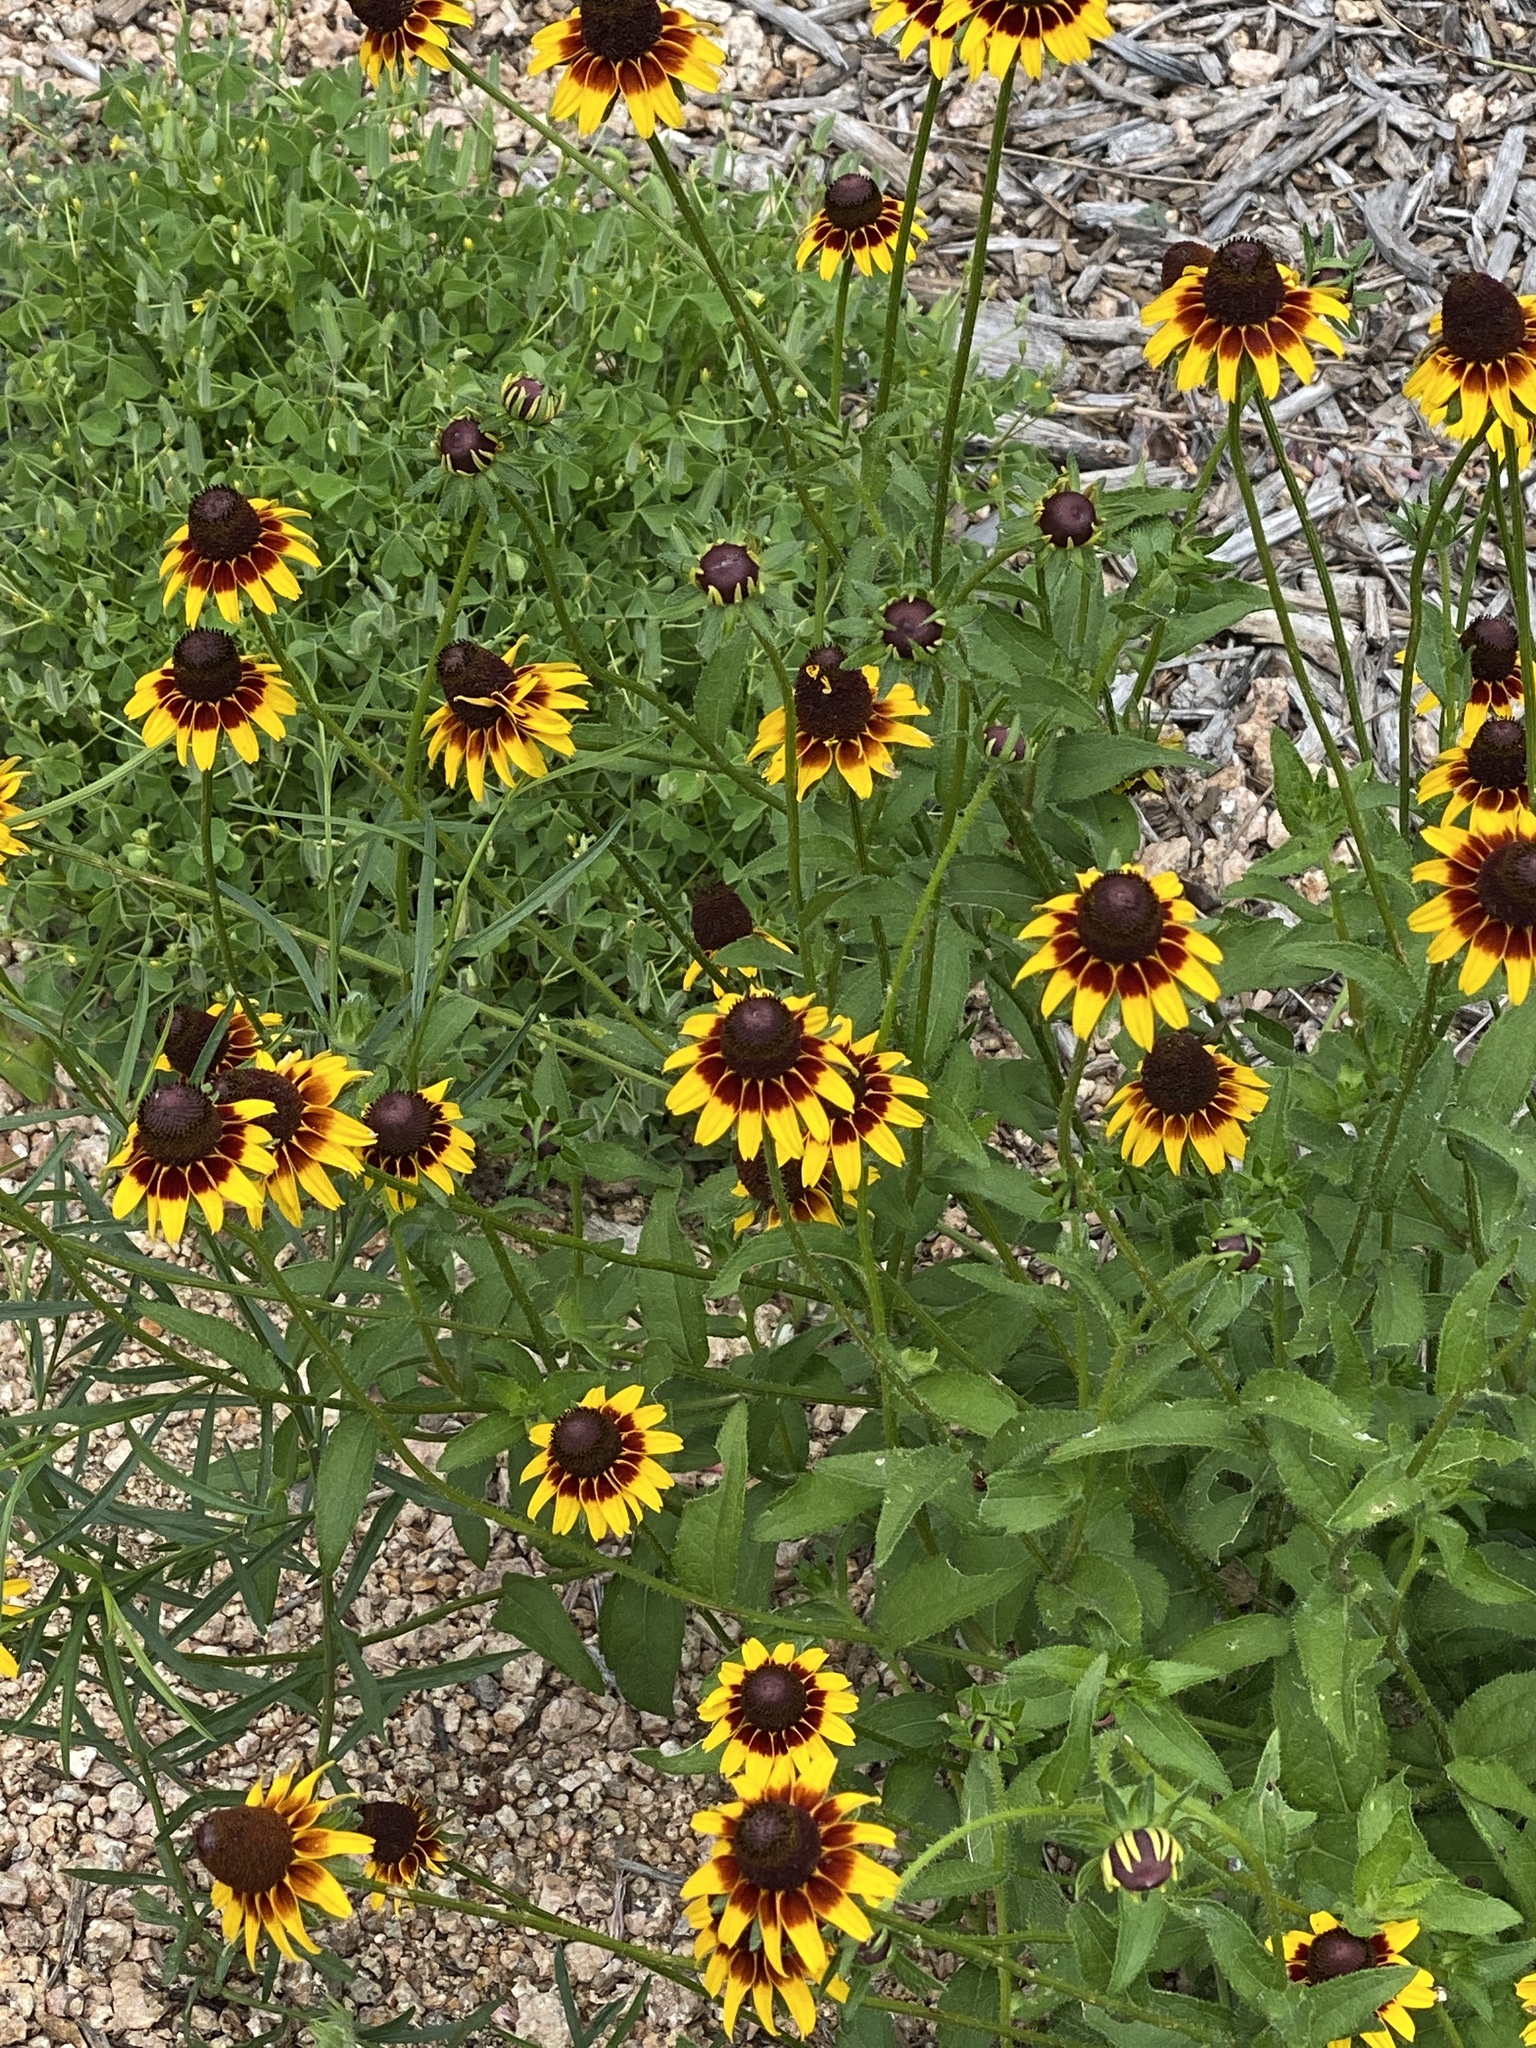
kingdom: Plantae
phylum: Tracheophyta
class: Magnoliopsida
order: Asterales
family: Asteraceae
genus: Rudbeckia
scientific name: Rudbeckia hirta
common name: Black-eyed-susan
